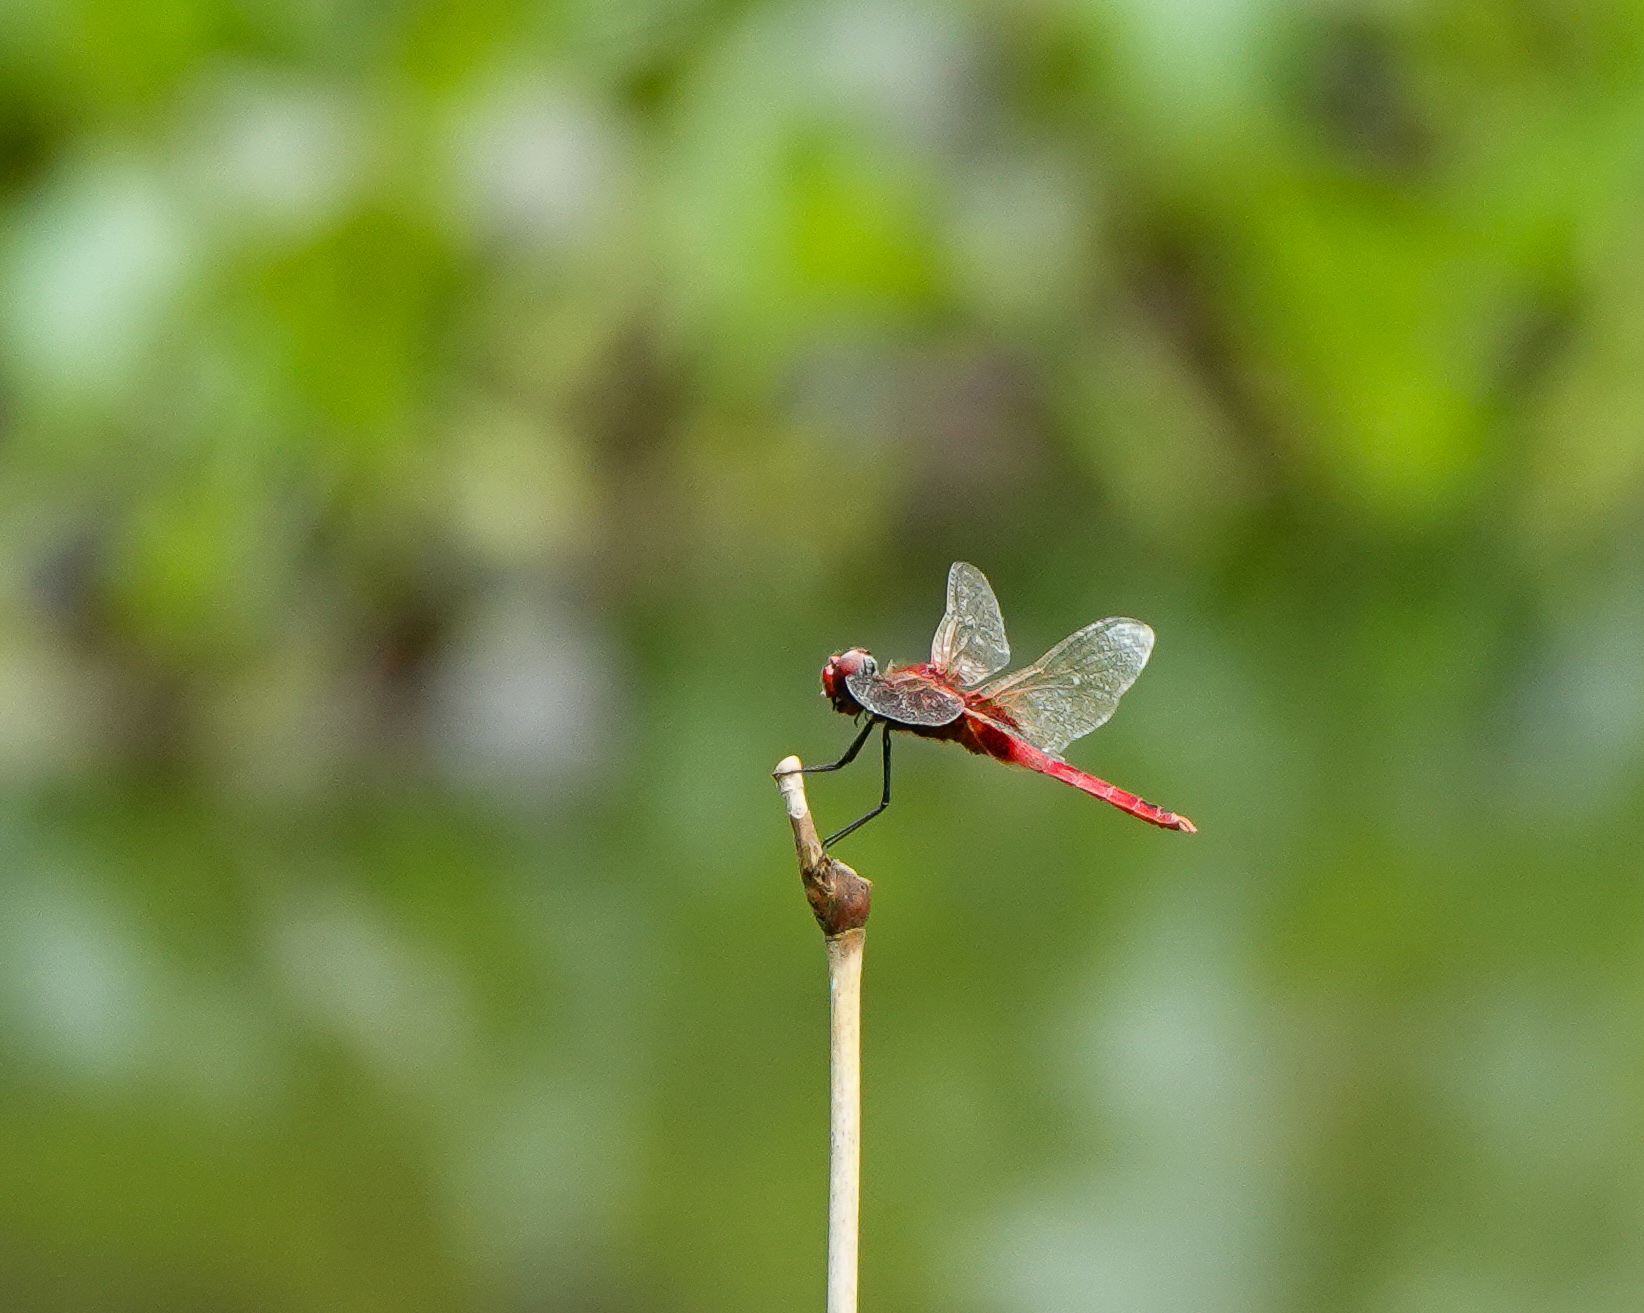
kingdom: Animalia
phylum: Arthropoda
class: Insecta
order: Odonata
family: Libellulidae
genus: Urothemis
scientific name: Urothemis signata
